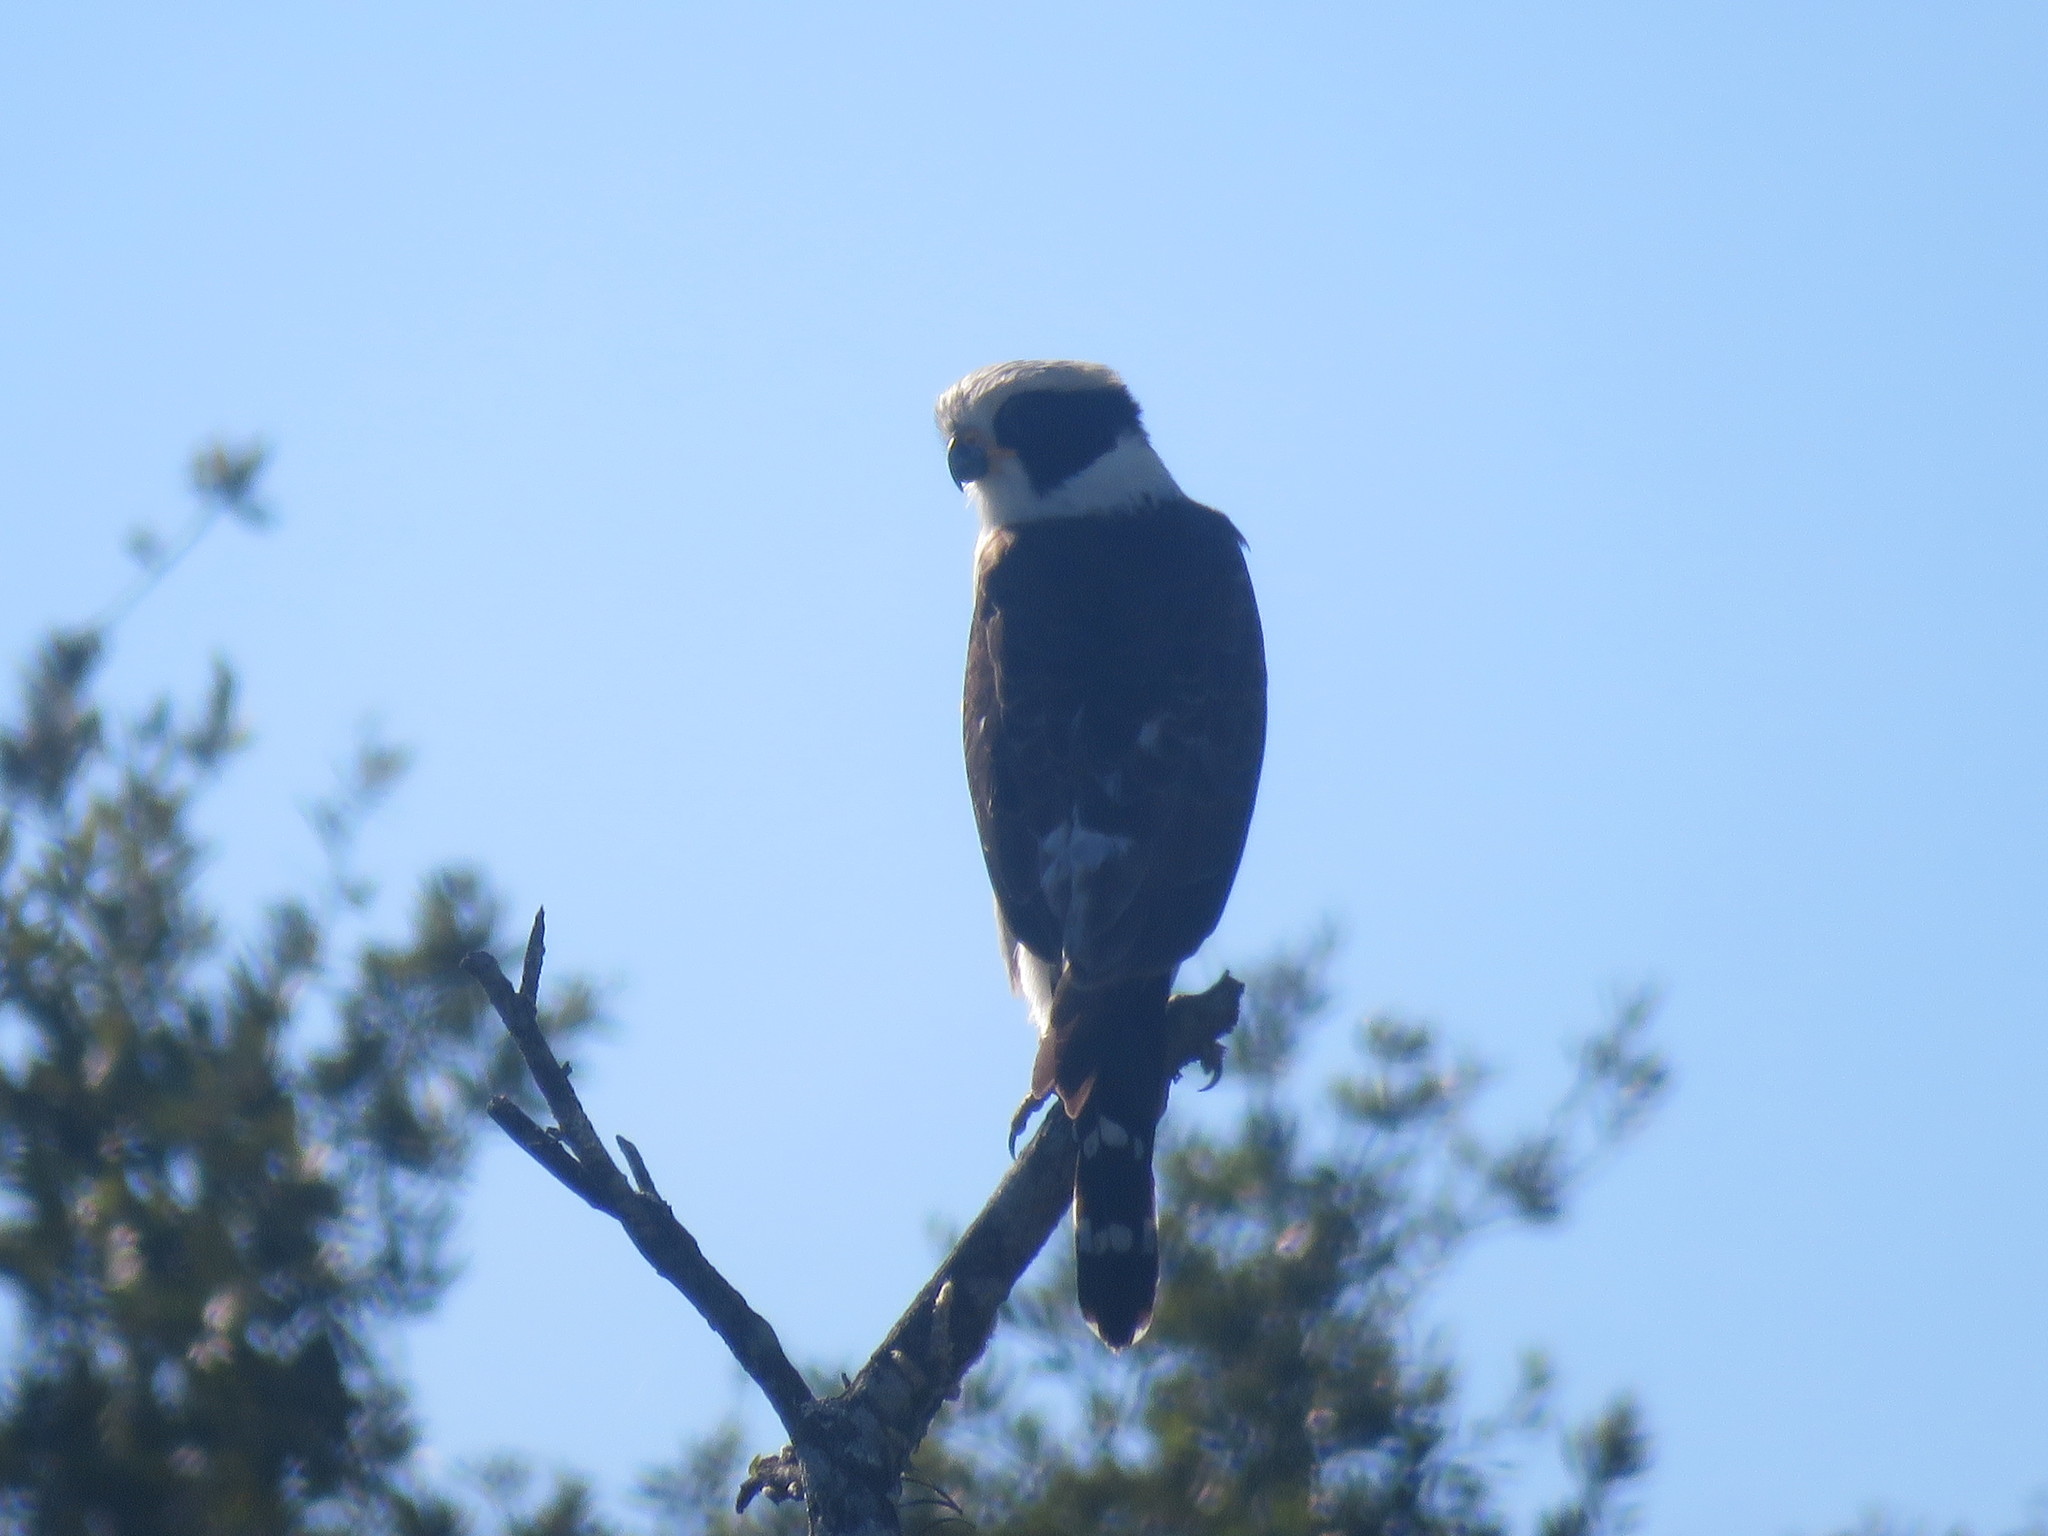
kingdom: Animalia
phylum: Chordata
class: Aves
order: Falconiformes
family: Falconidae
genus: Herpetotheres
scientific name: Herpetotheres cachinnans
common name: Laughing falcon
